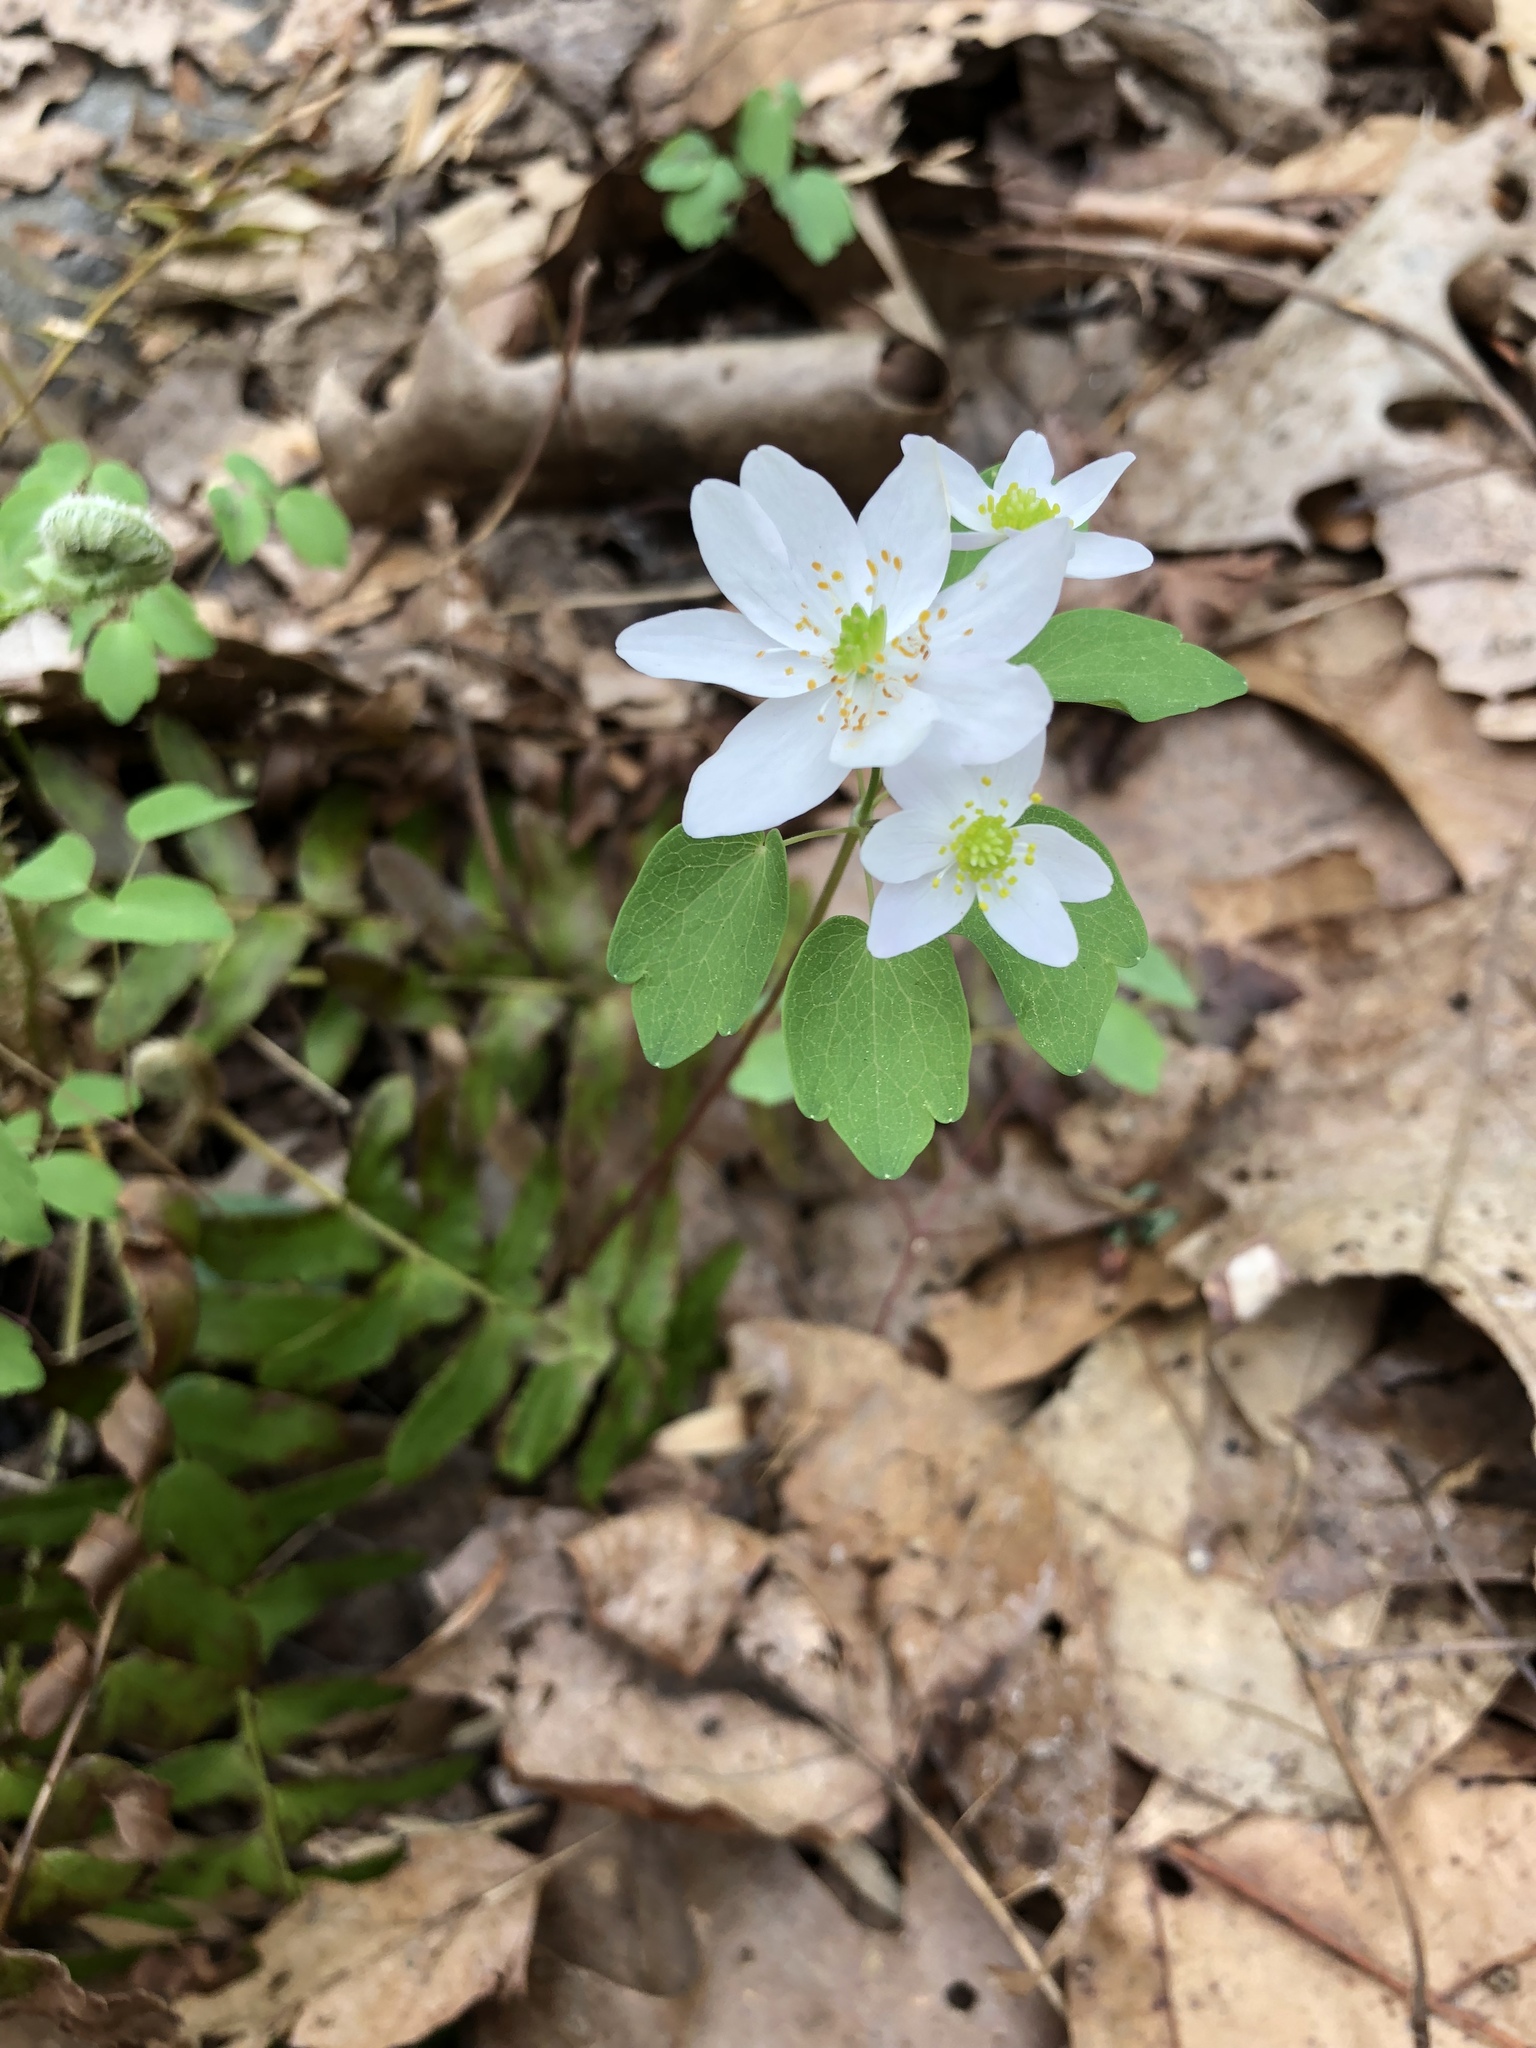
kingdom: Plantae
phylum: Tracheophyta
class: Magnoliopsida
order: Ranunculales
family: Ranunculaceae
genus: Thalictrum
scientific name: Thalictrum thalictroides
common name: Rue-anemone
